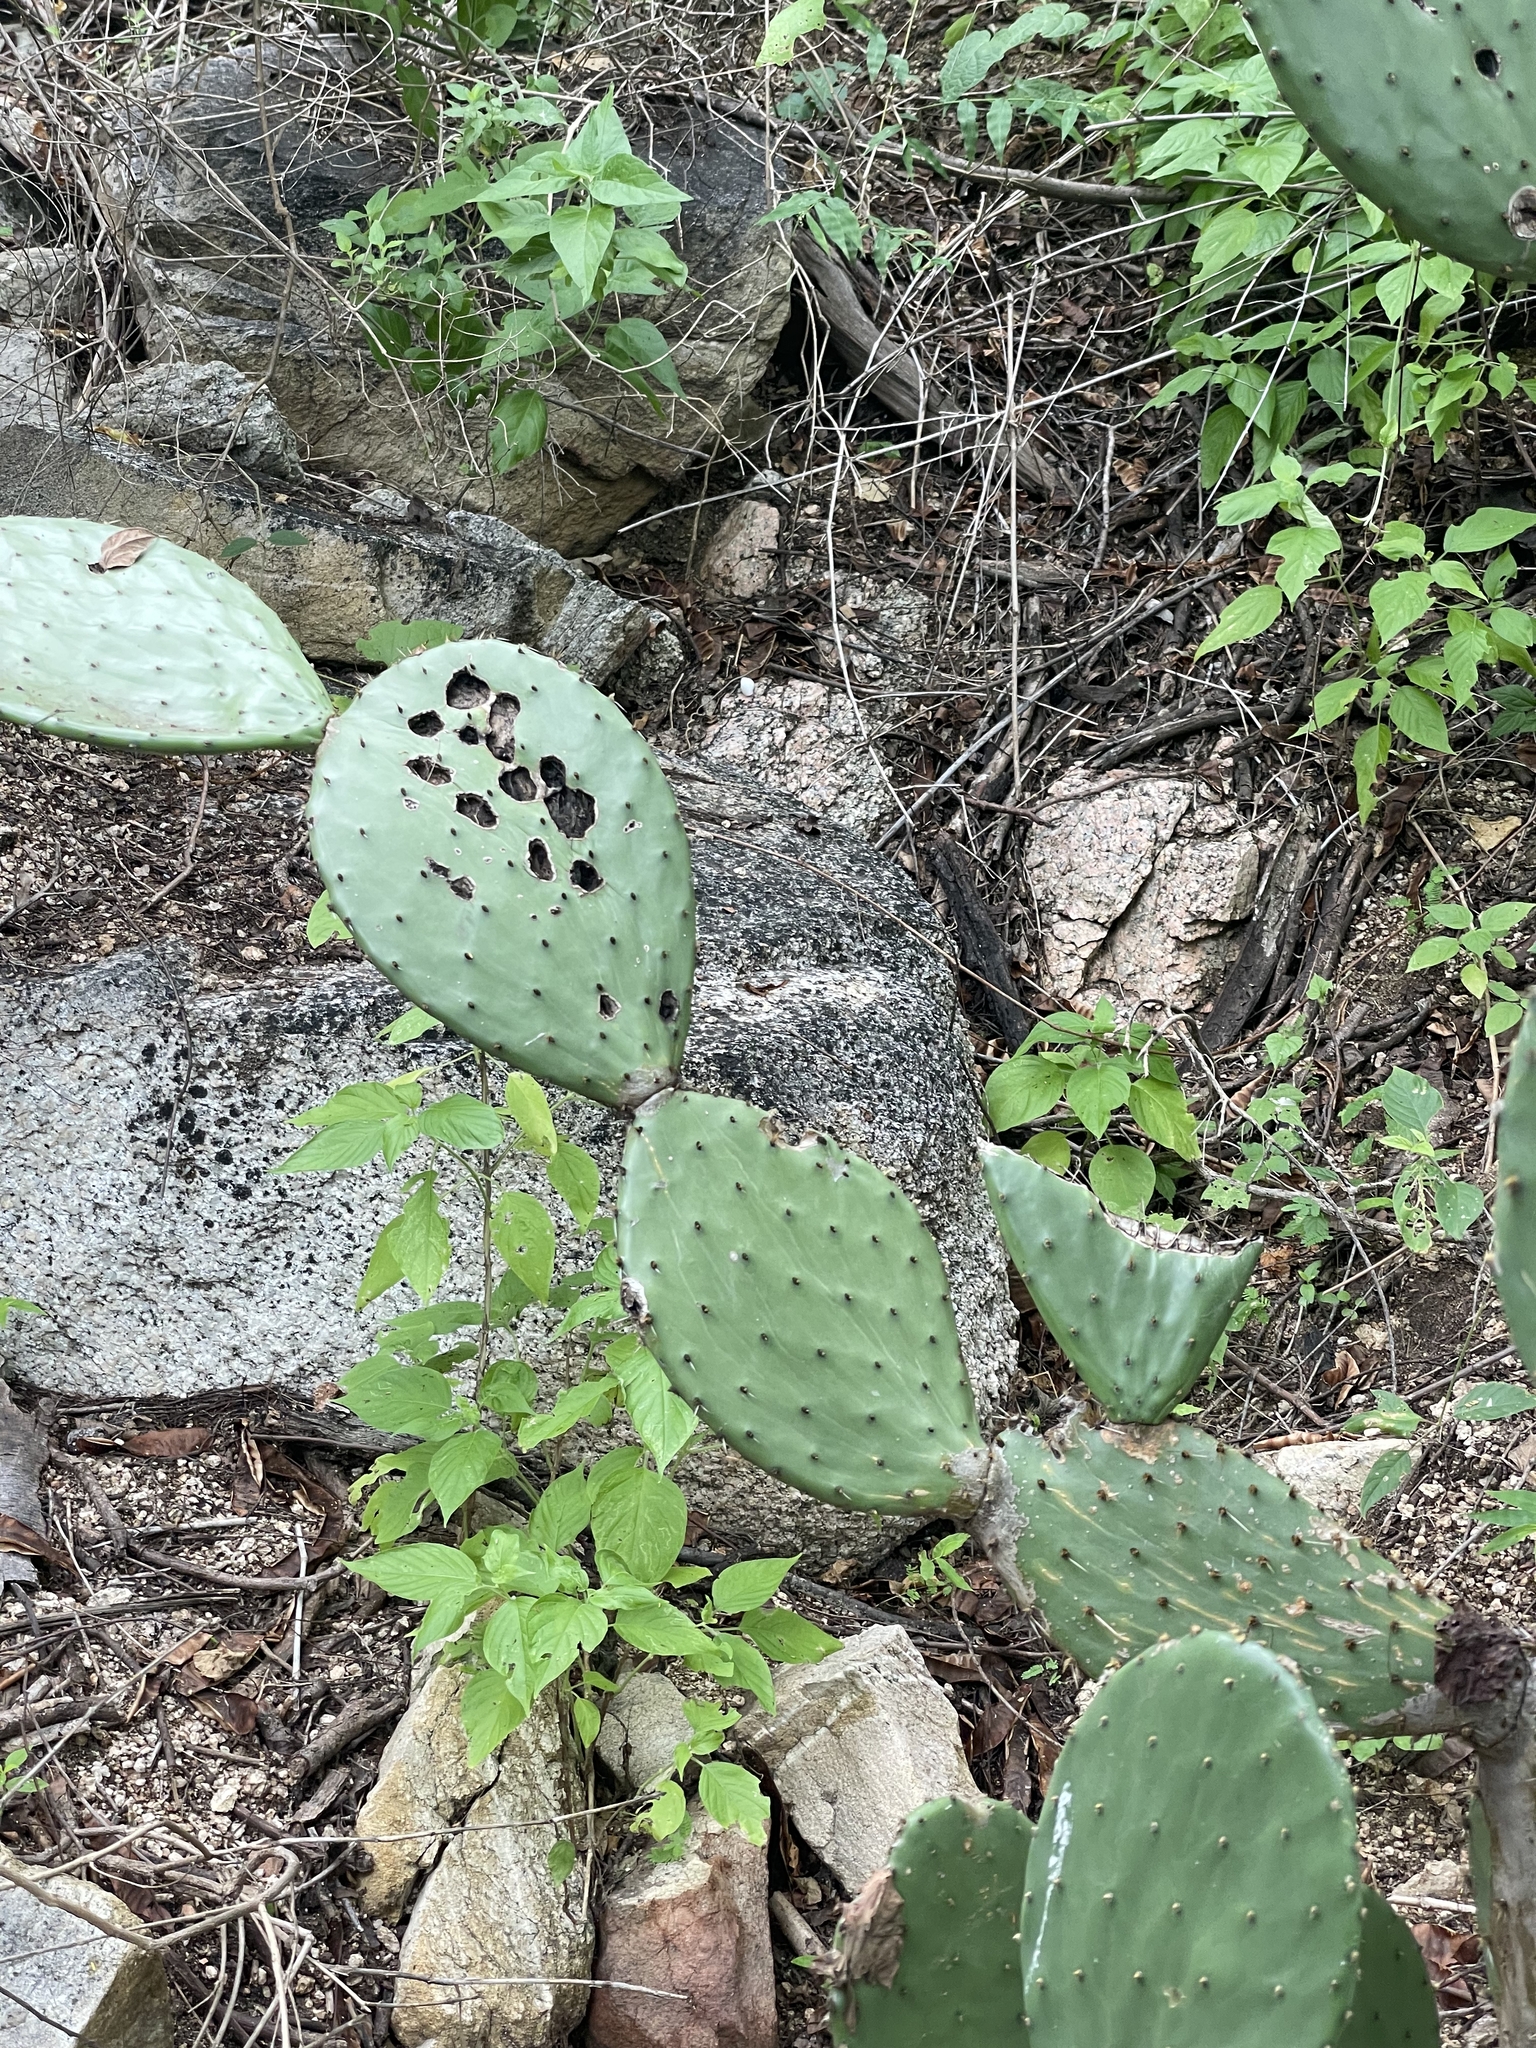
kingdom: Plantae
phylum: Tracheophyta
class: Magnoliopsida
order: Caryophyllales
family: Cactaceae
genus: Opuntia
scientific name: Opuntia sierralagunensis
